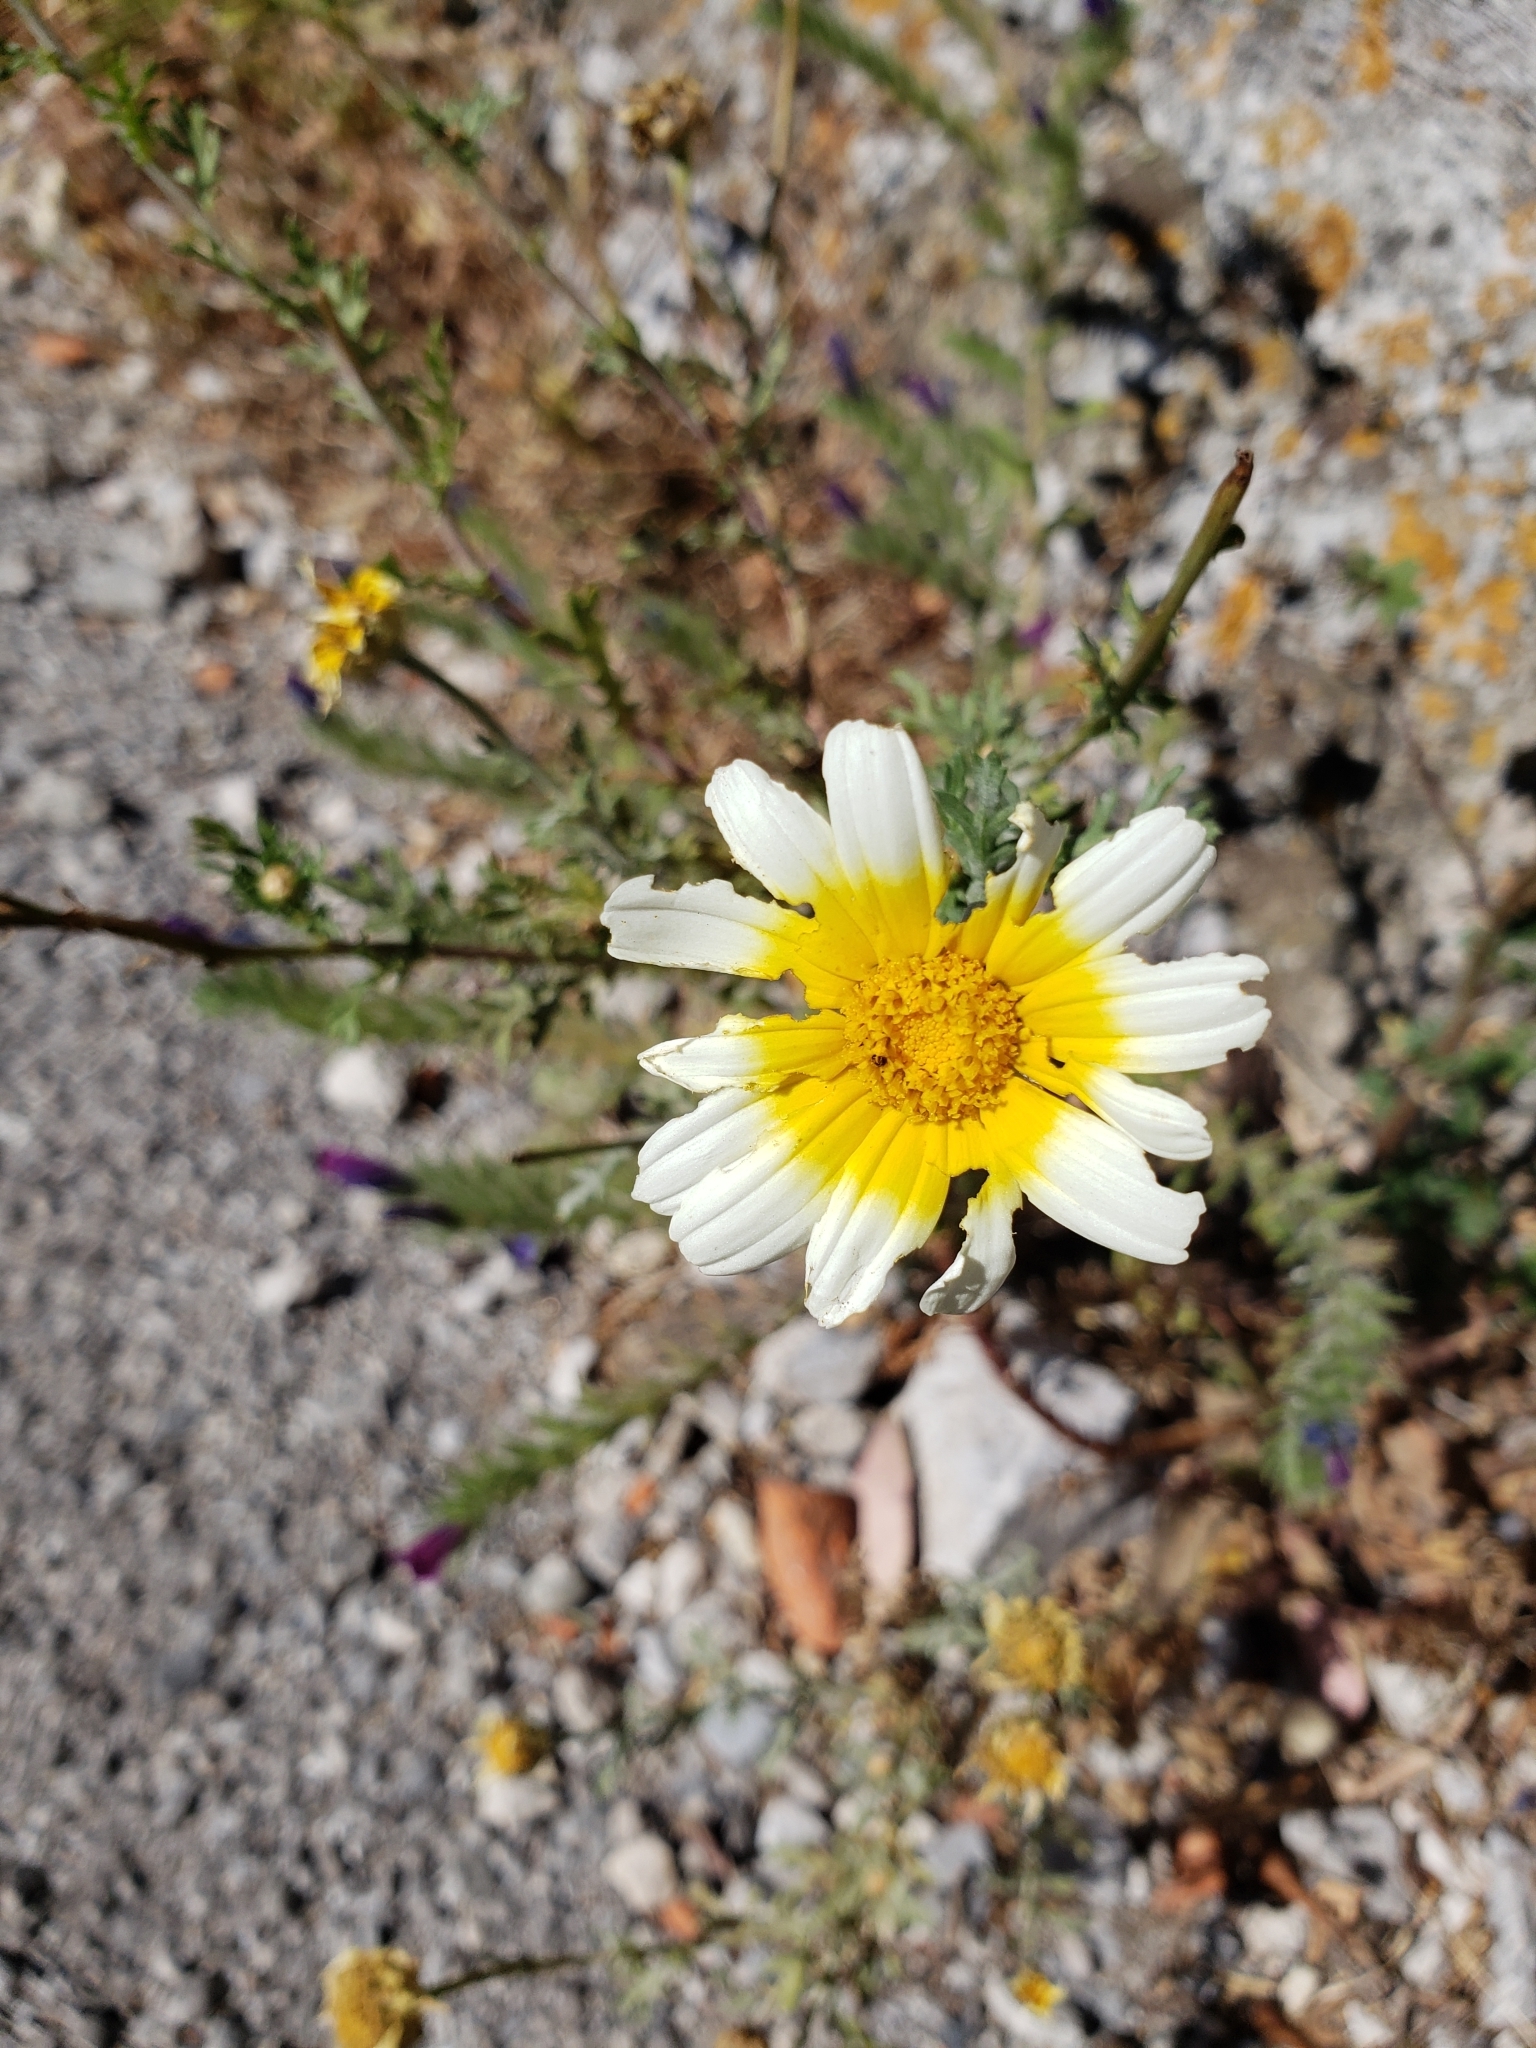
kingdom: Plantae
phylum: Tracheophyta
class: Magnoliopsida
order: Asterales
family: Asteraceae
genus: Glebionis
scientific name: Glebionis coronaria
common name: Crowndaisy
